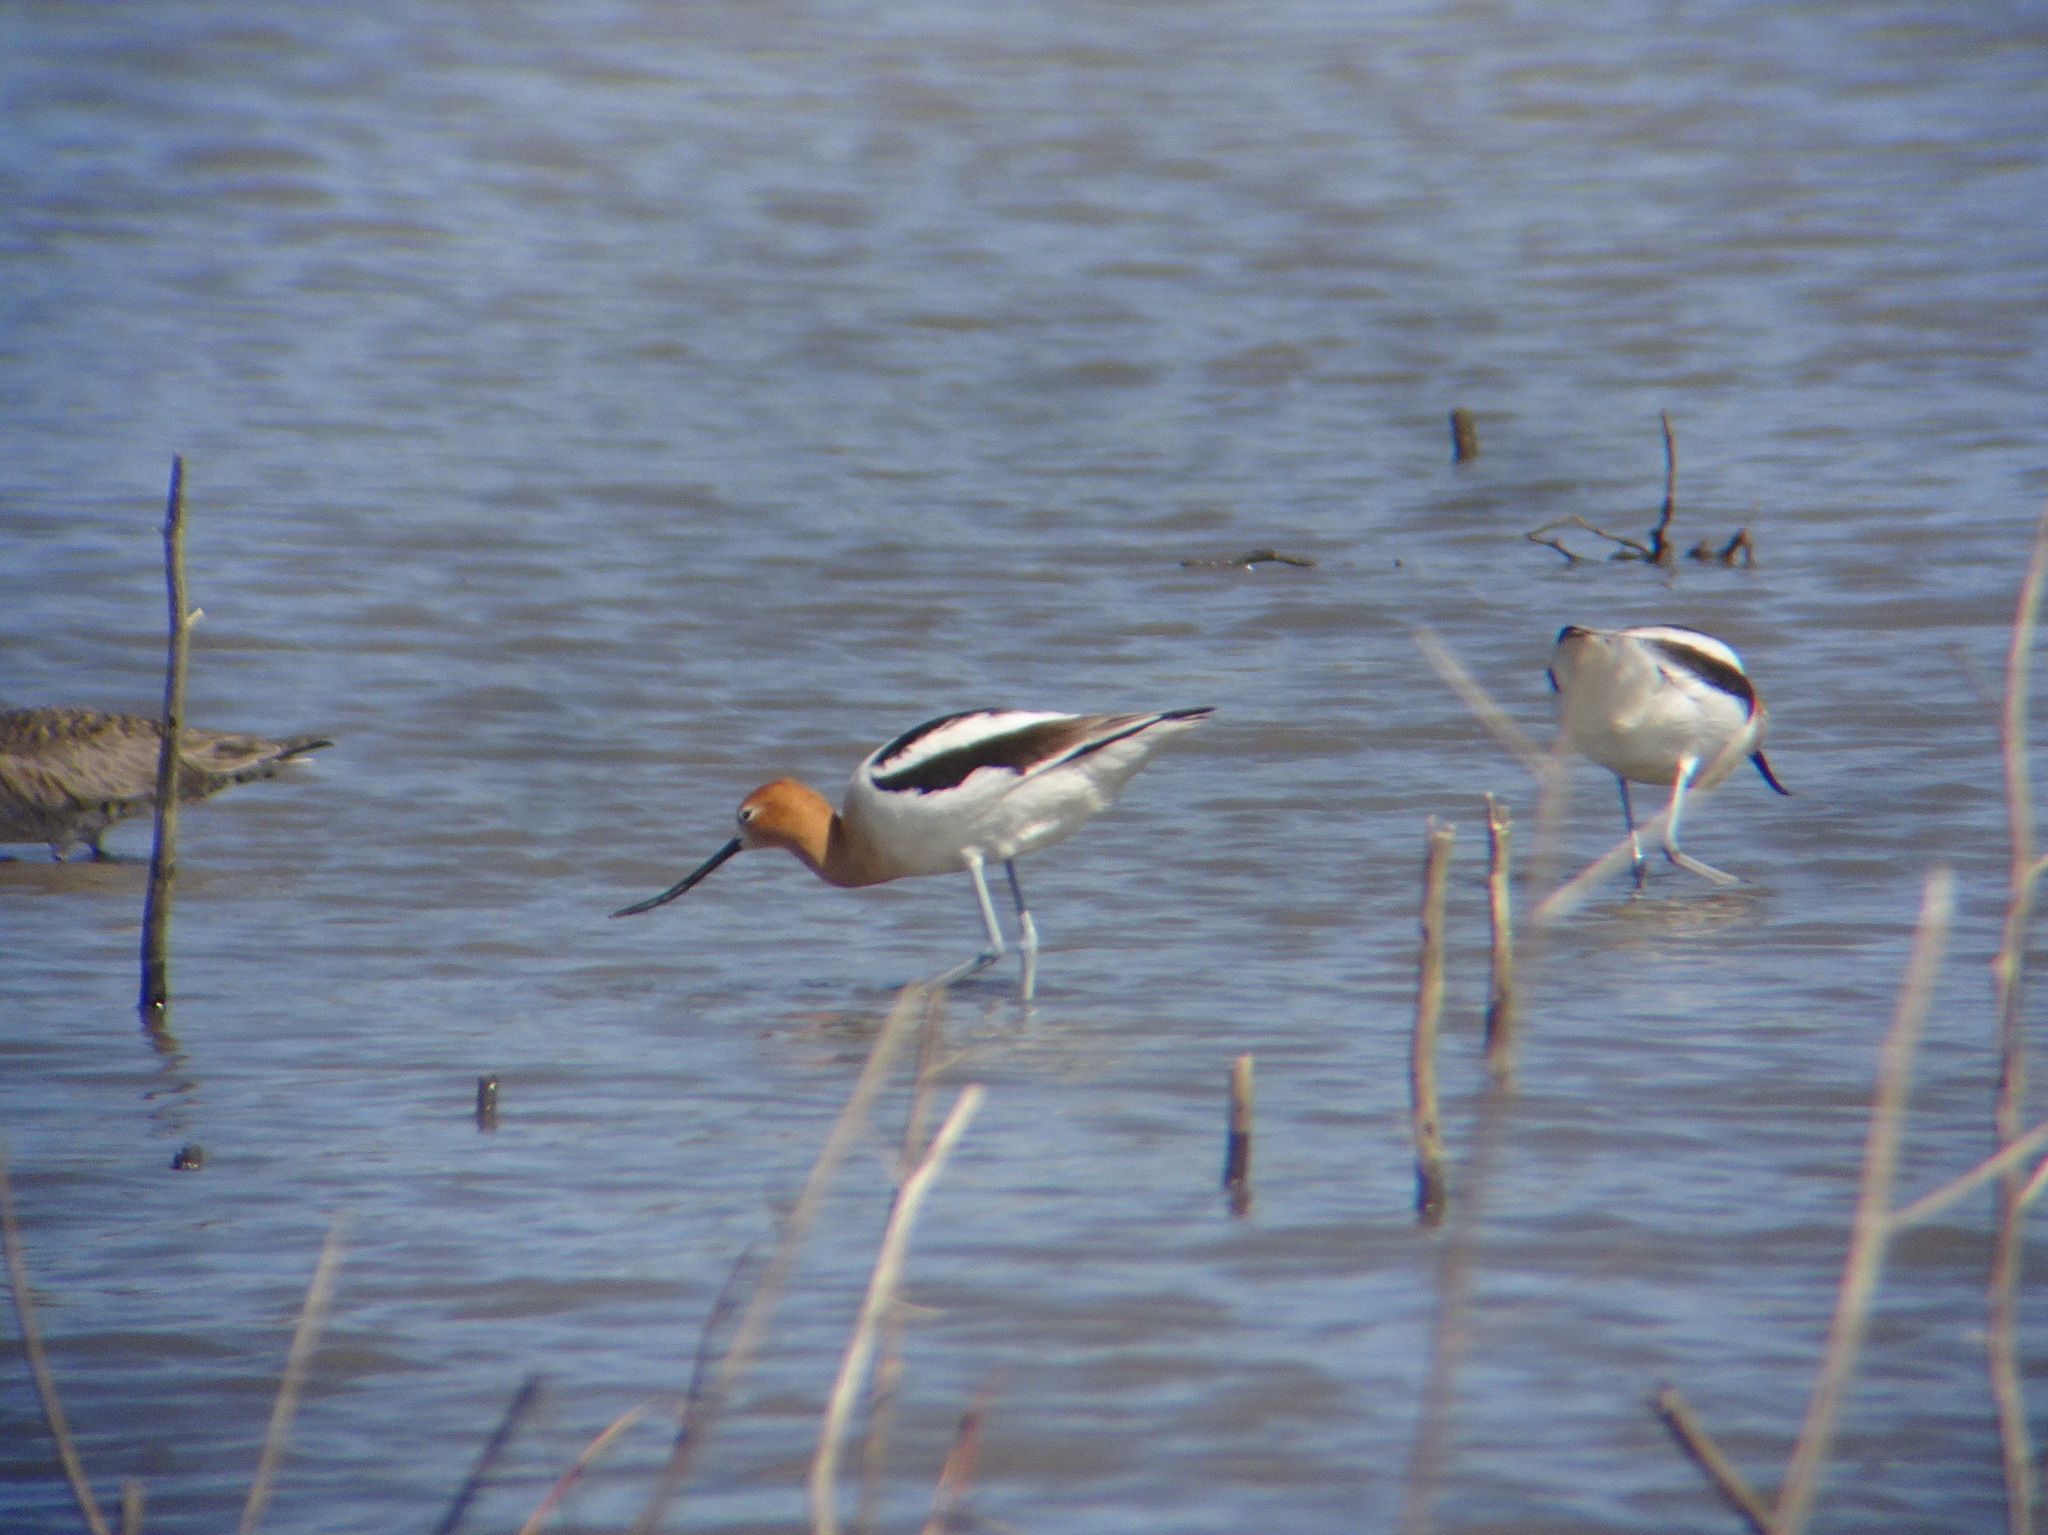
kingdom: Animalia
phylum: Chordata
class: Aves
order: Charadriiformes
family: Recurvirostridae
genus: Recurvirostra
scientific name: Recurvirostra americana
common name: American avocet
